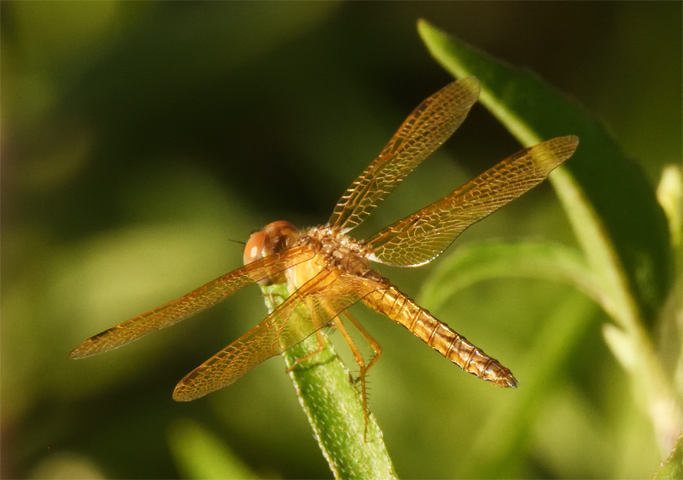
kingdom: Animalia
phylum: Arthropoda
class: Insecta
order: Odonata
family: Libellulidae
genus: Perithemis
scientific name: Perithemis intensa
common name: Mexican amberwing
